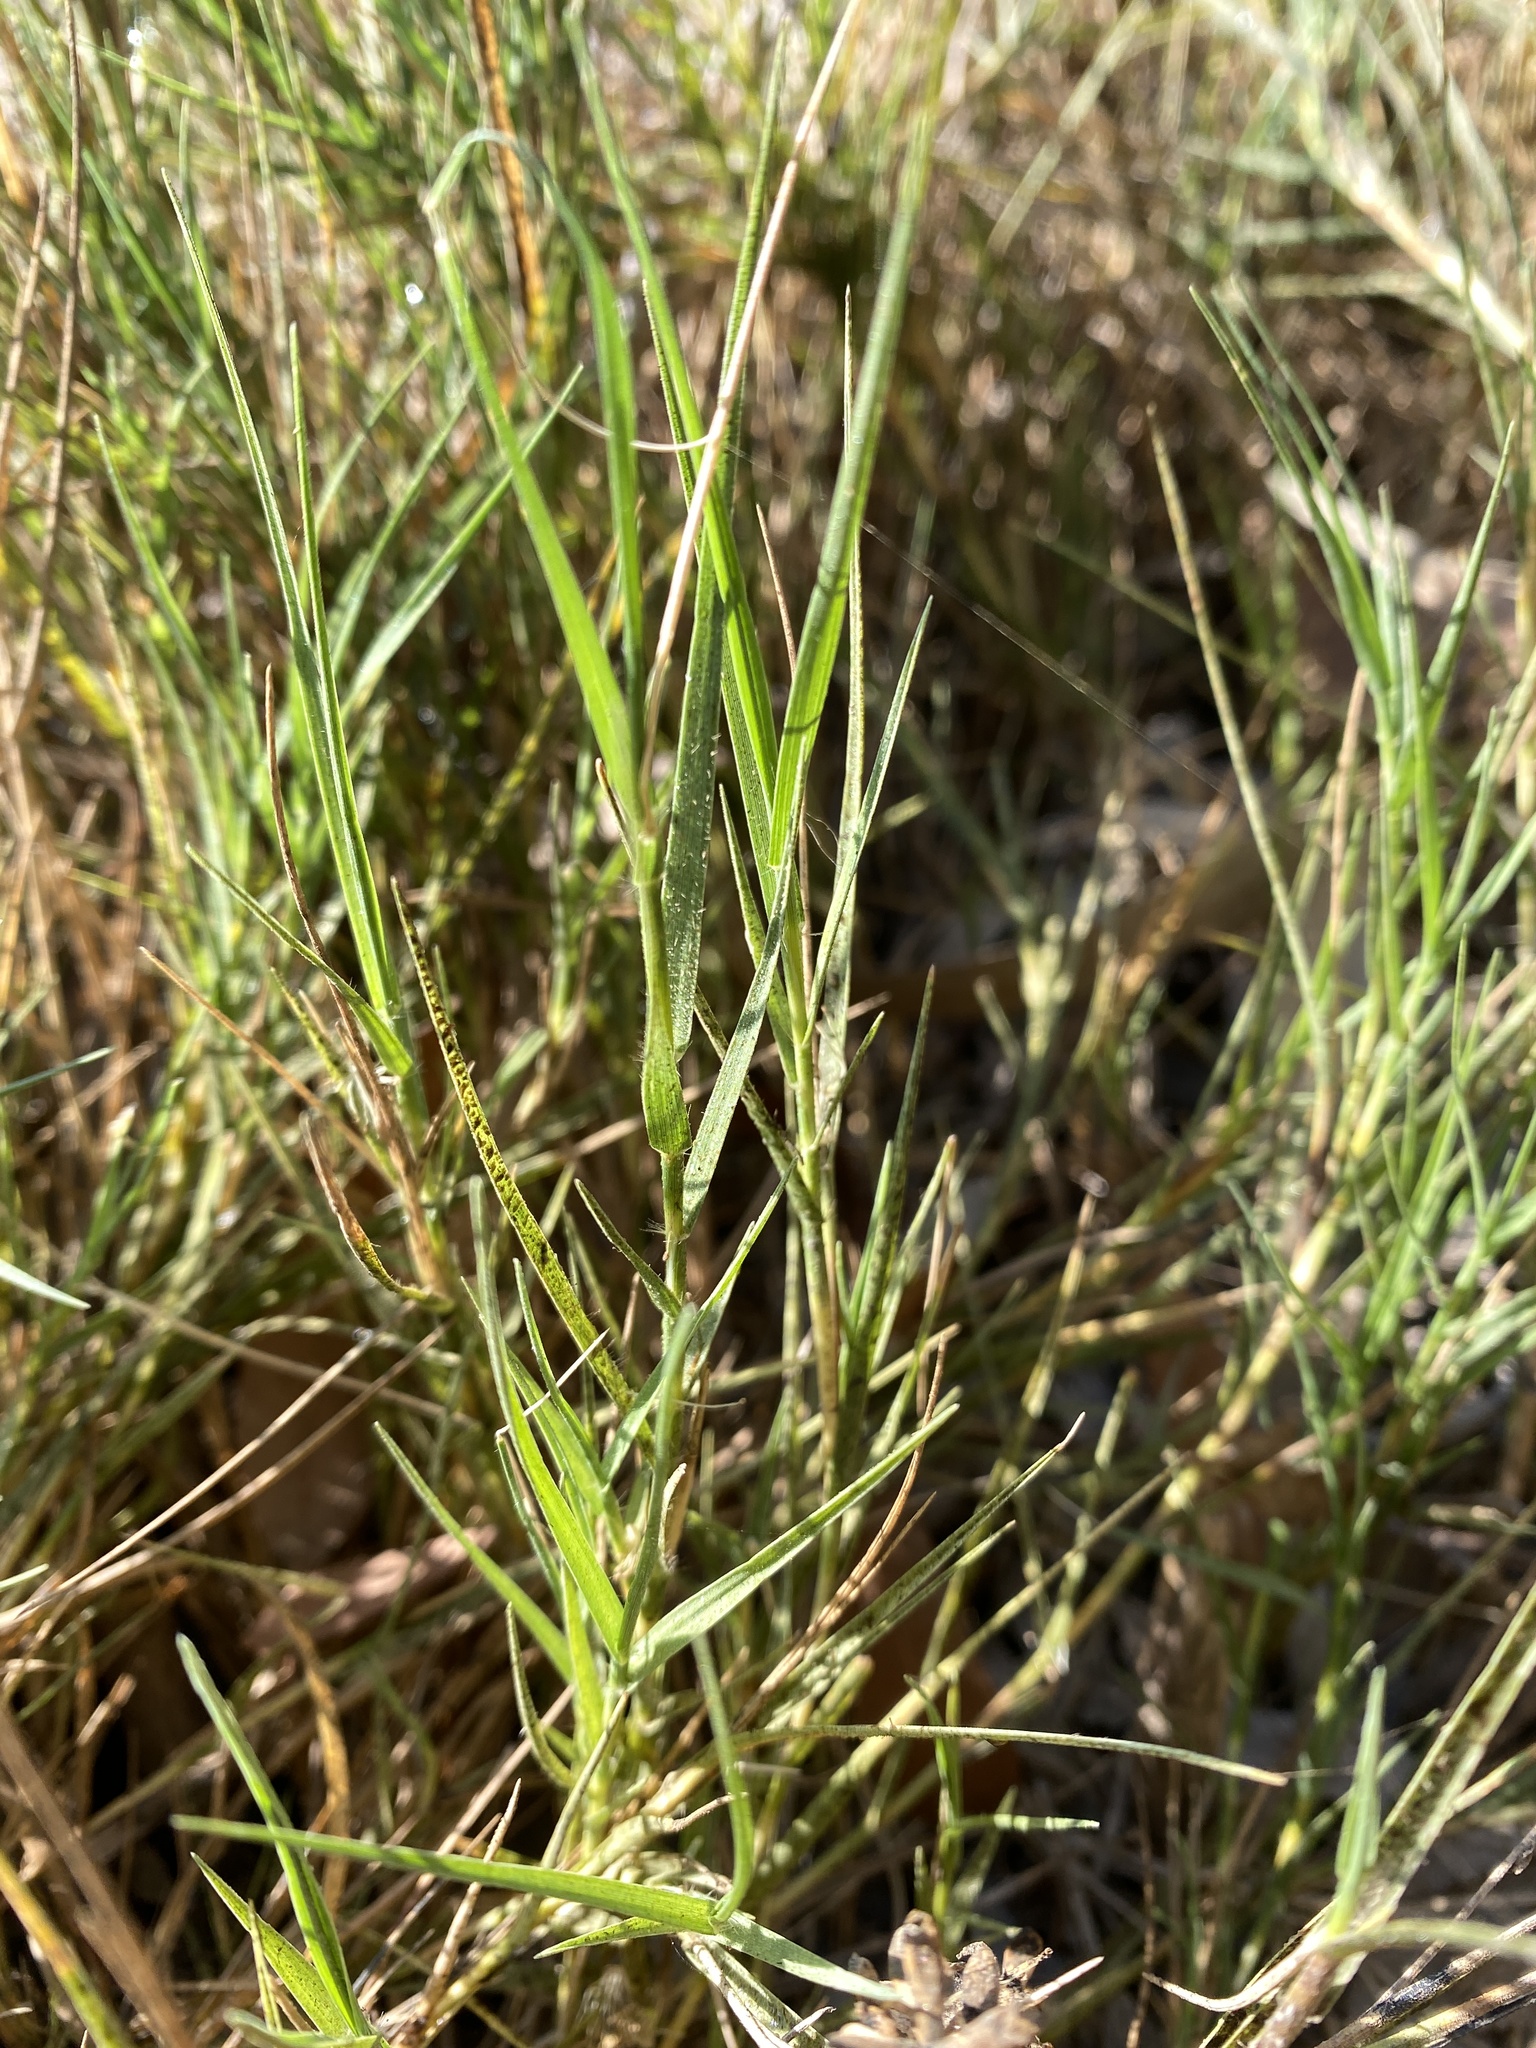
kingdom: Plantae
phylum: Tracheophyta
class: Liliopsida
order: Poales
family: Poaceae
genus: Distichlis
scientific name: Distichlis spicata
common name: Saltgrass
